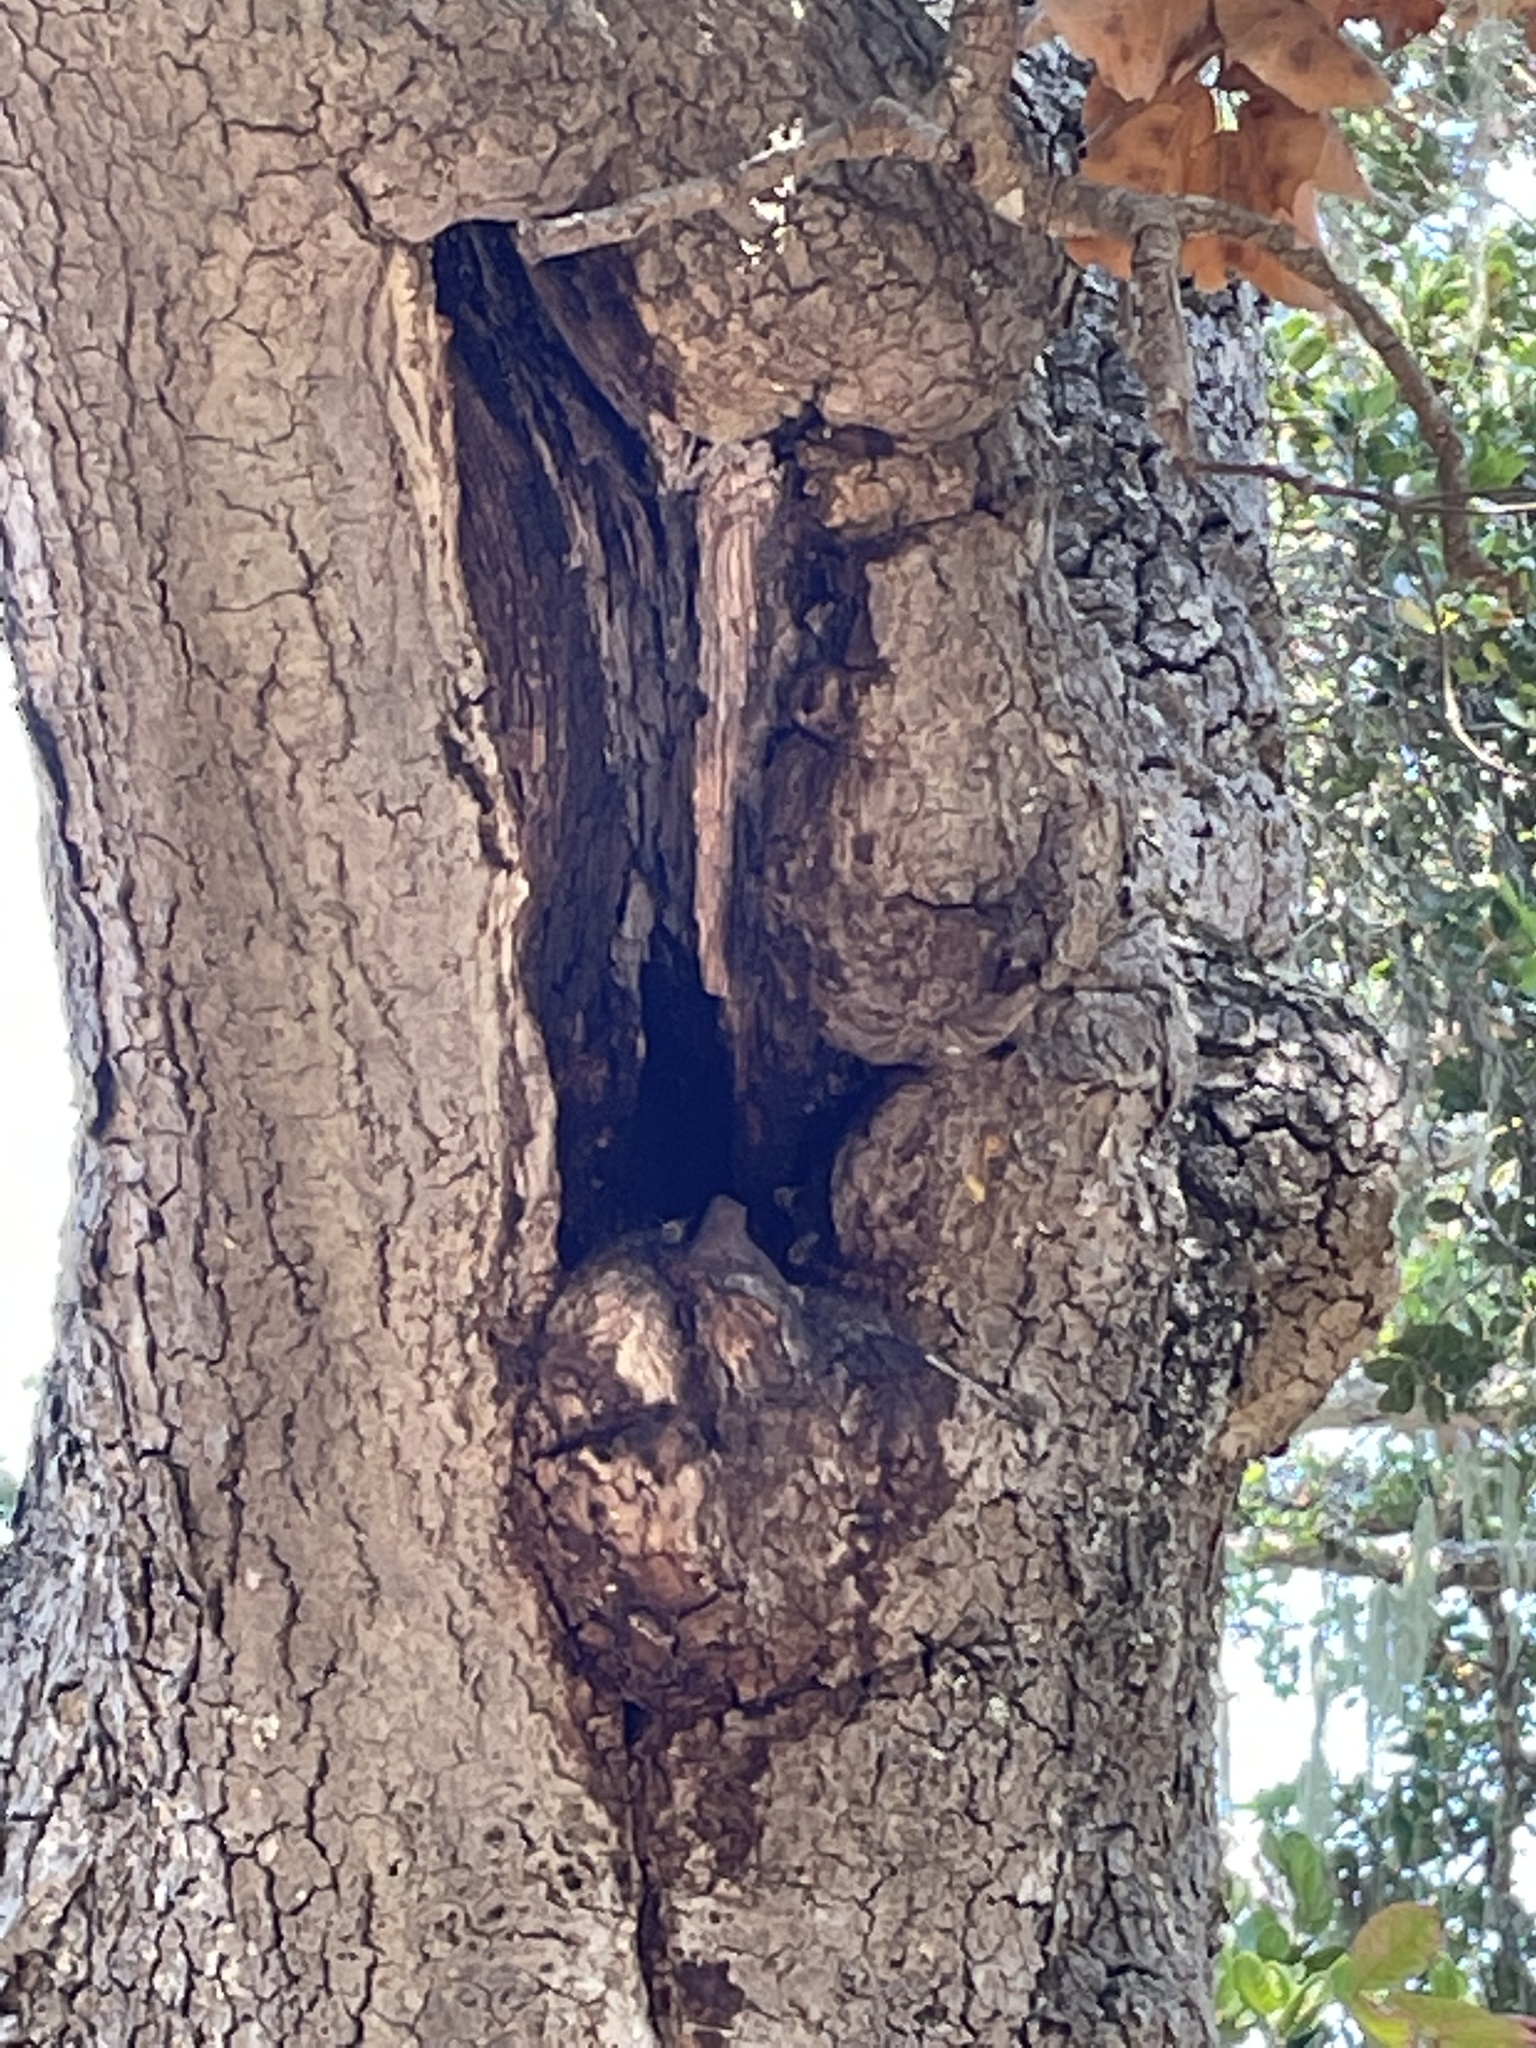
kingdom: Animalia
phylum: Arthropoda
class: Insecta
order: Hymenoptera
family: Apidae
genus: Apis
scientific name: Apis mellifera
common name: Honey bee
